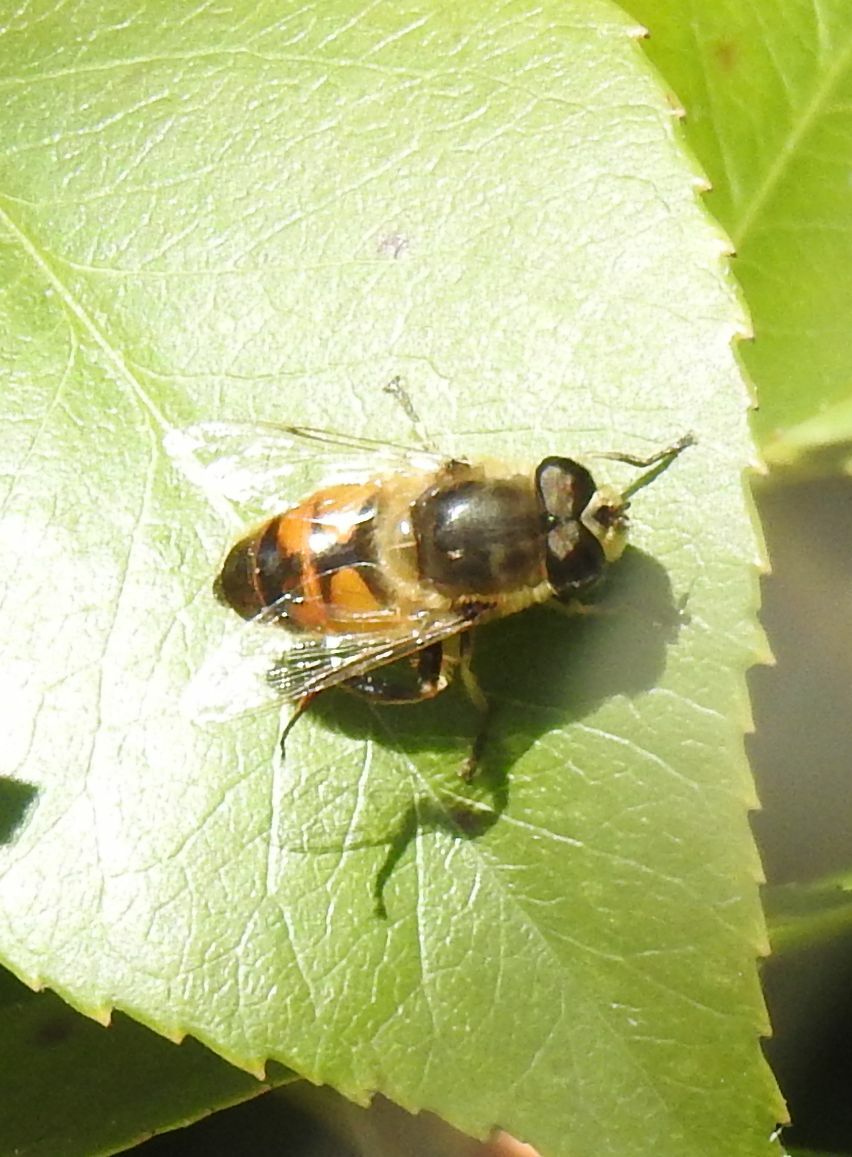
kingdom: Animalia
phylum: Arthropoda
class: Insecta
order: Diptera
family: Syrphidae
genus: Eristalis
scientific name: Eristalis tenax
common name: Drone fly
